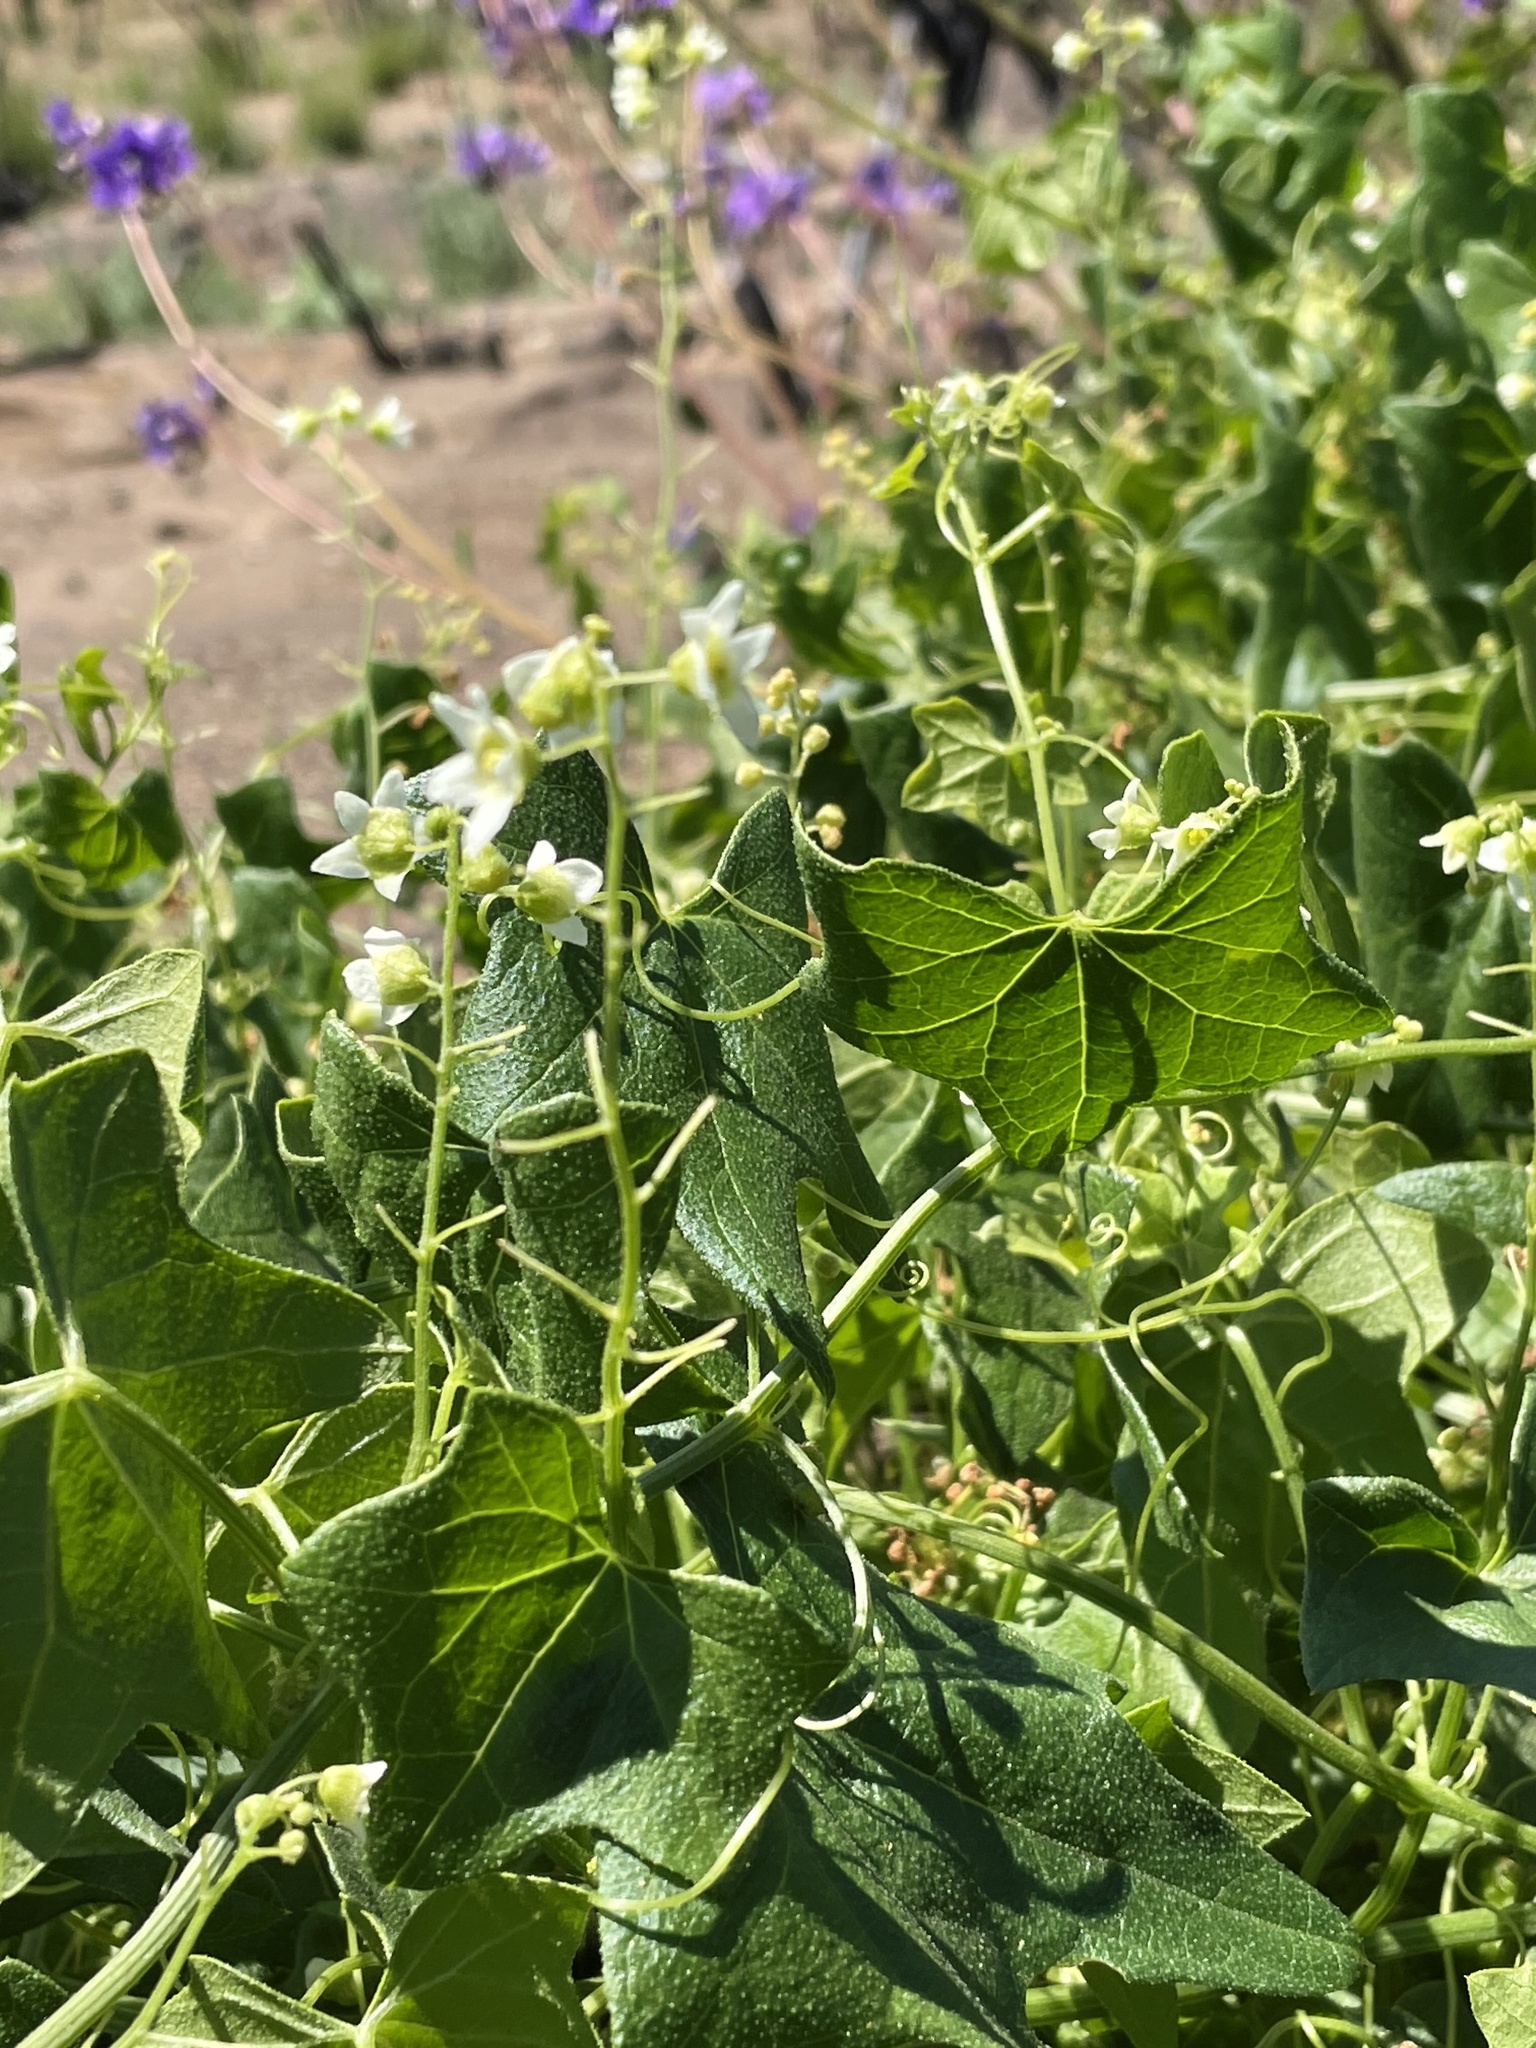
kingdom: Plantae
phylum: Tracheophyta
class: Magnoliopsida
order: Cucurbitales
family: Cucurbitaceae
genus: Marah
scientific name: Marah macrocarpa
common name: Cucamonga manroot
